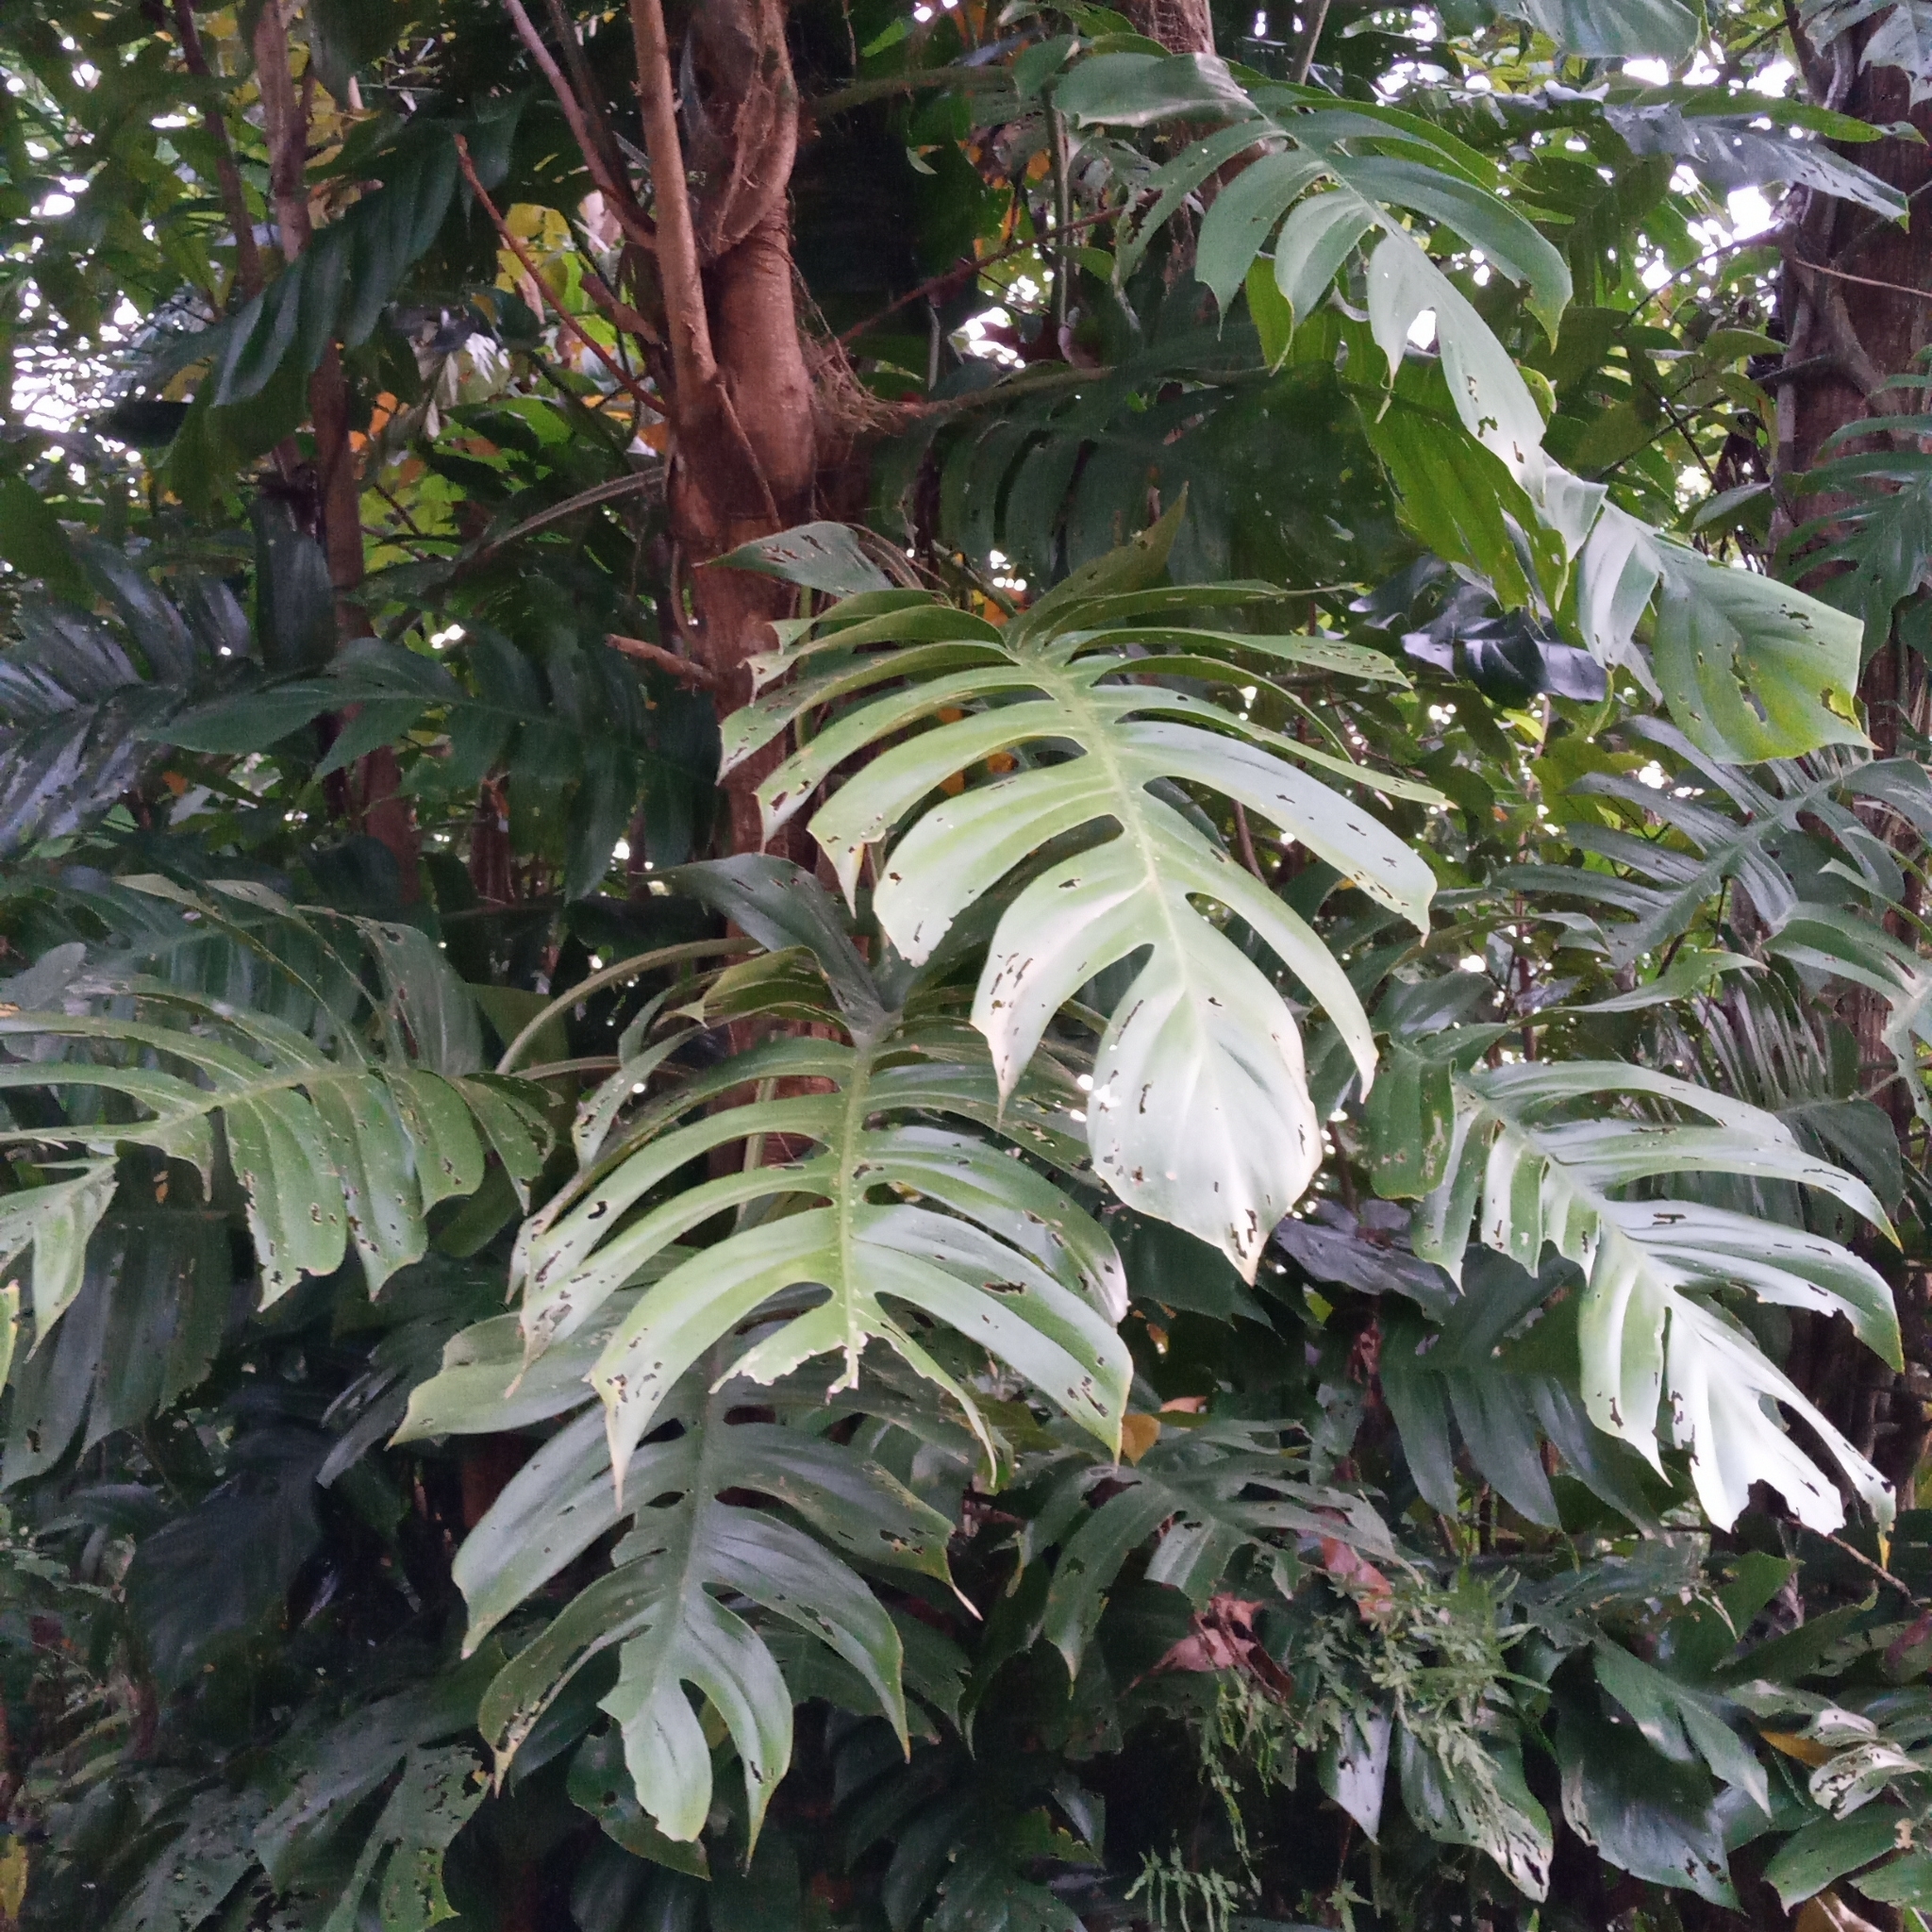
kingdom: Plantae
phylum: Tracheophyta
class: Liliopsida
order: Alismatales
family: Araceae
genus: Epipremnum
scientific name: Epipremnum pinnatum
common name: Centipede tongavine
